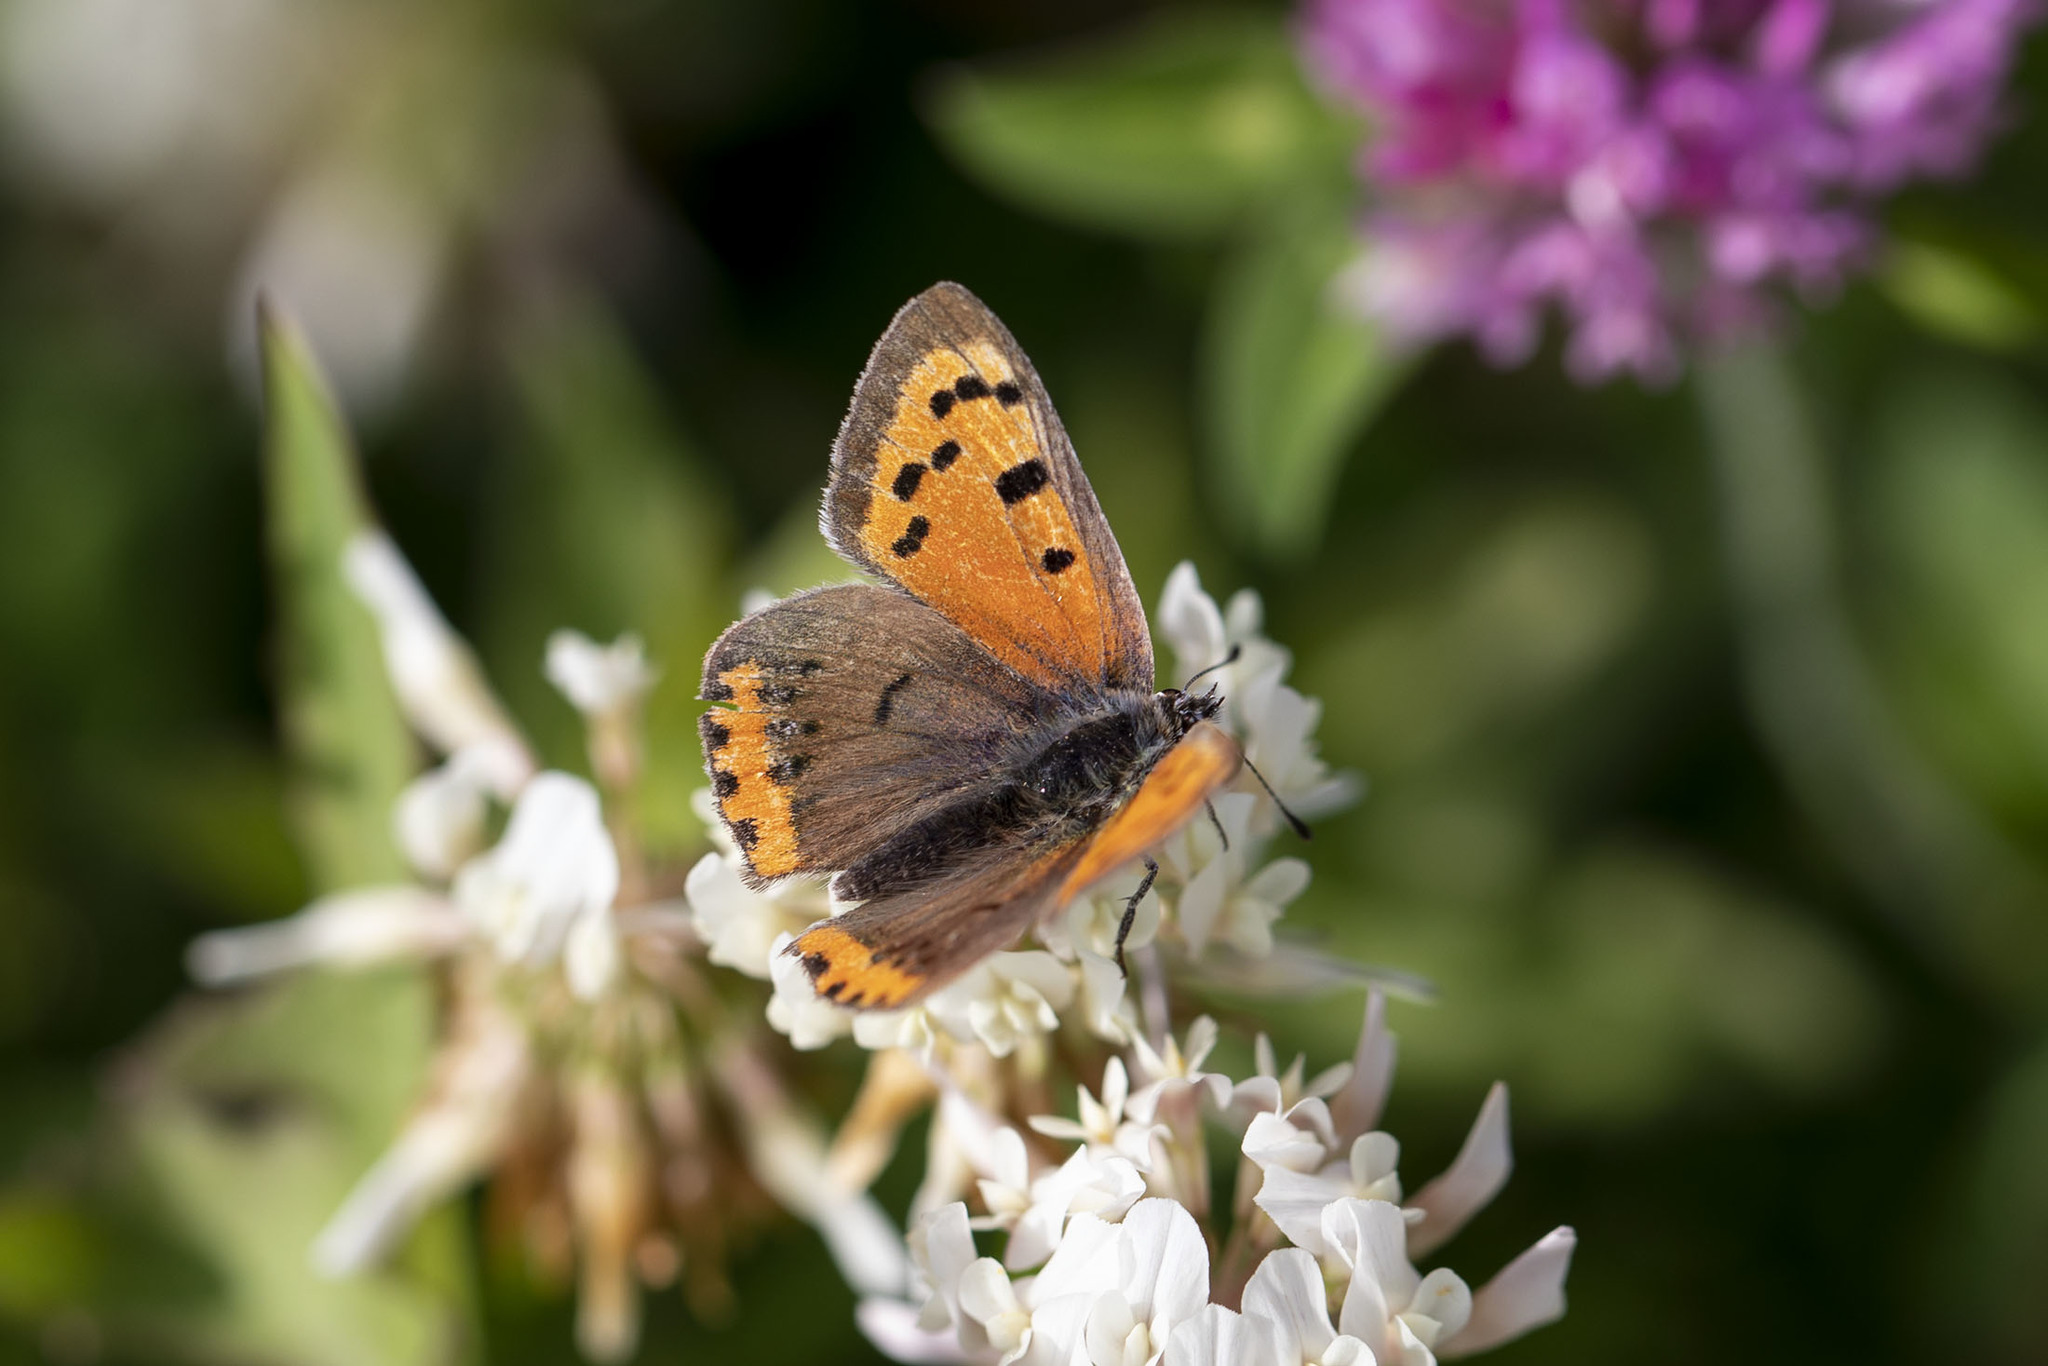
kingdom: Animalia
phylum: Arthropoda
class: Insecta
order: Lepidoptera
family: Lycaenidae
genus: Lycaena
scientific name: Lycaena hypophlaeas
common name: American copper
